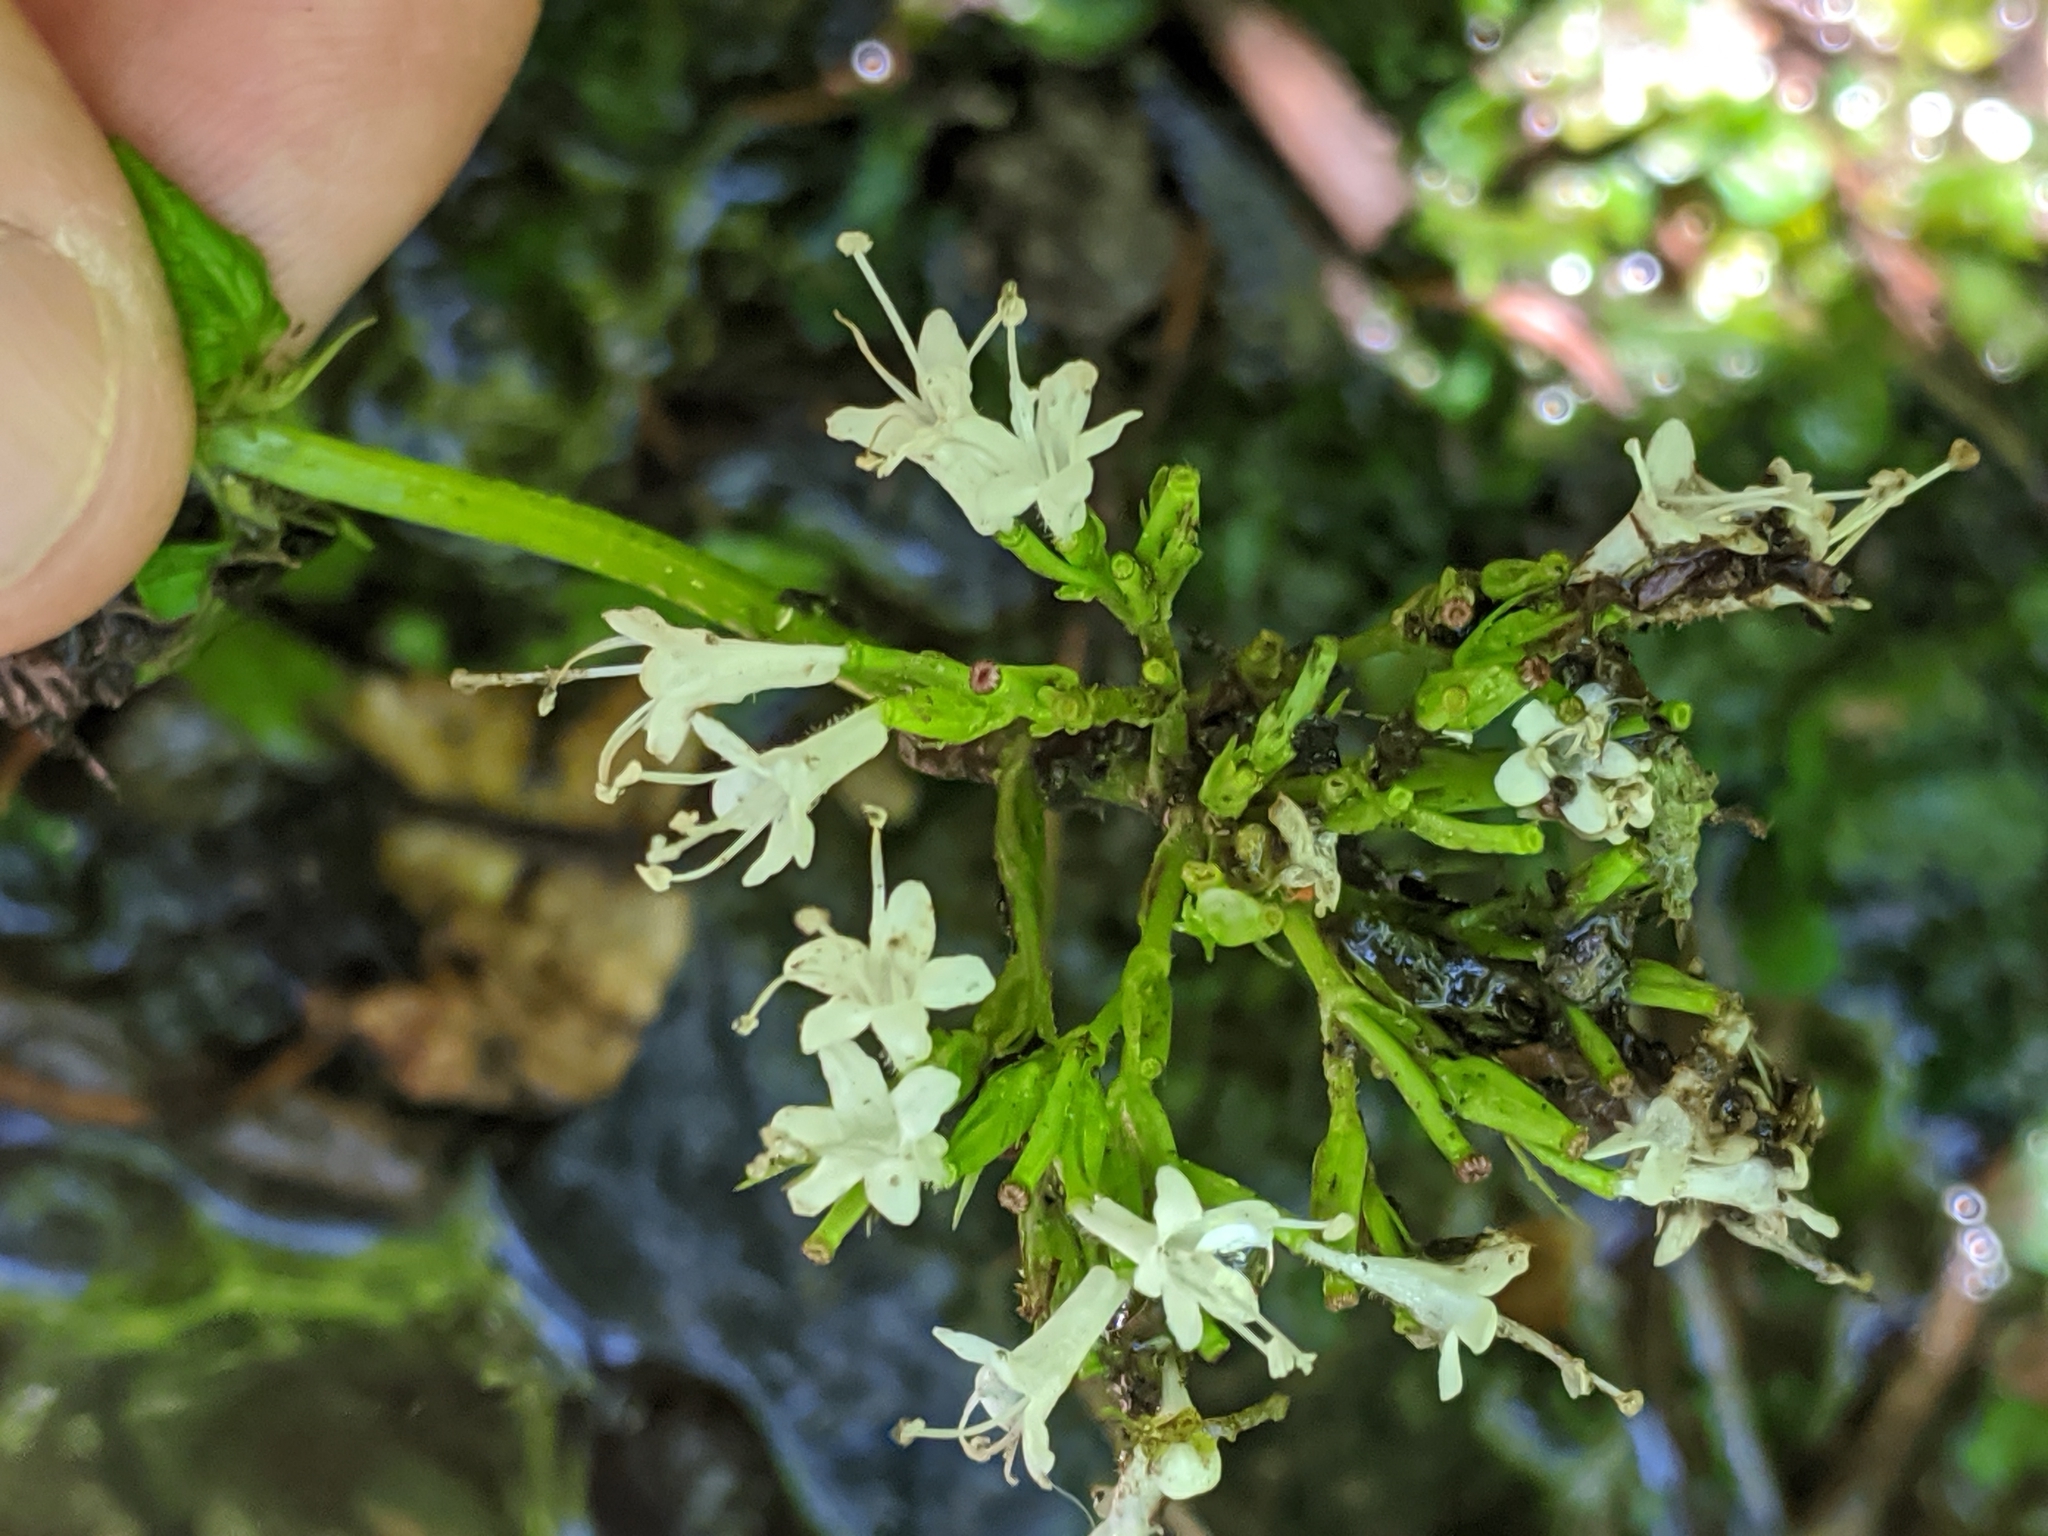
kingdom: Plantae
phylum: Tracheophyta
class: Magnoliopsida
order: Dipsacales
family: Caprifoliaceae
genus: Valeriana
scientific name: Valeriana sitchensis
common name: Pacific valerian
